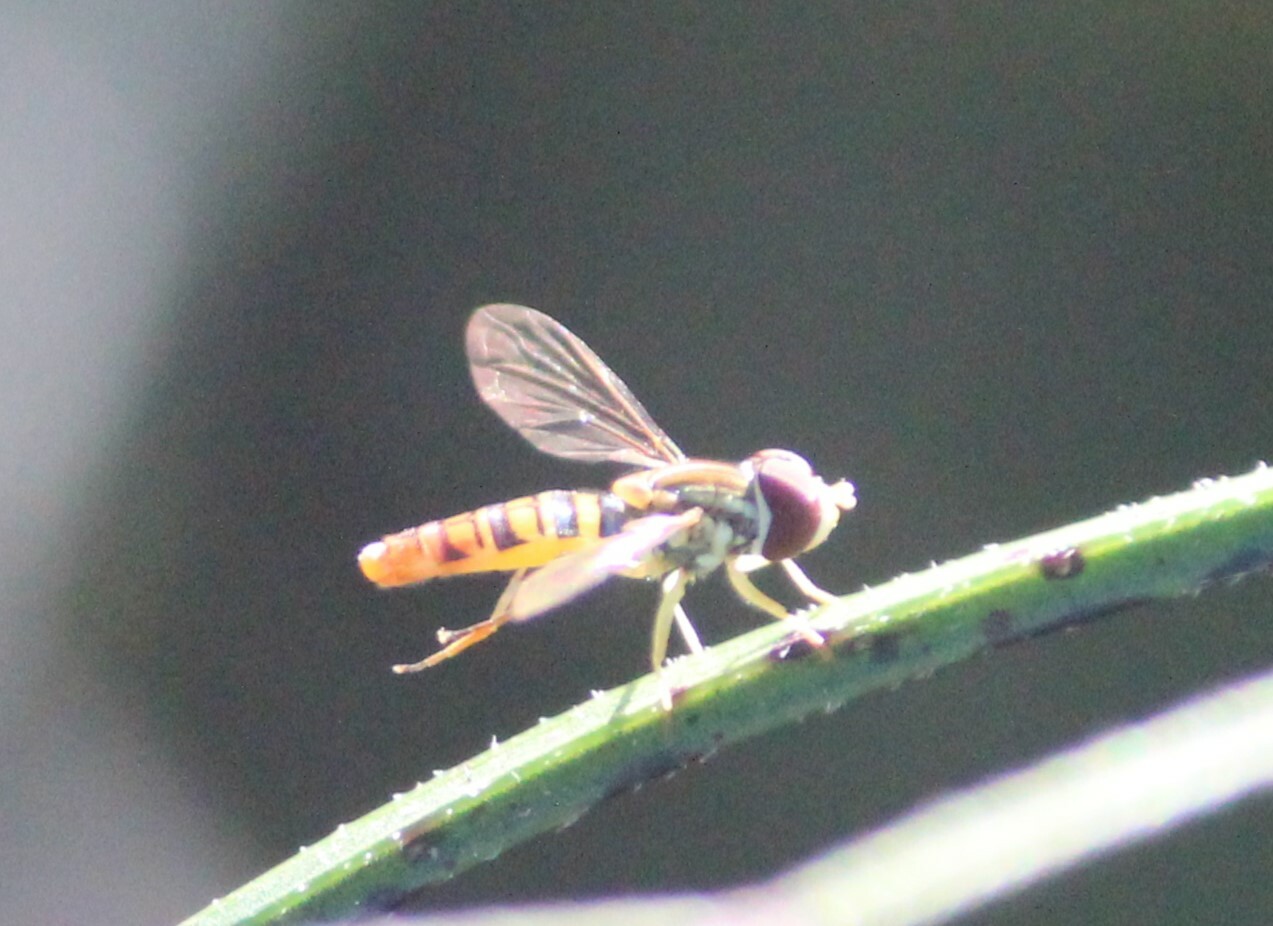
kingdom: Animalia
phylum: Arthropoda
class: Insecta
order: Diptera
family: Syrphidae
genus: Toxomerus
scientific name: Toxomerus politus
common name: Maize calligrapher
